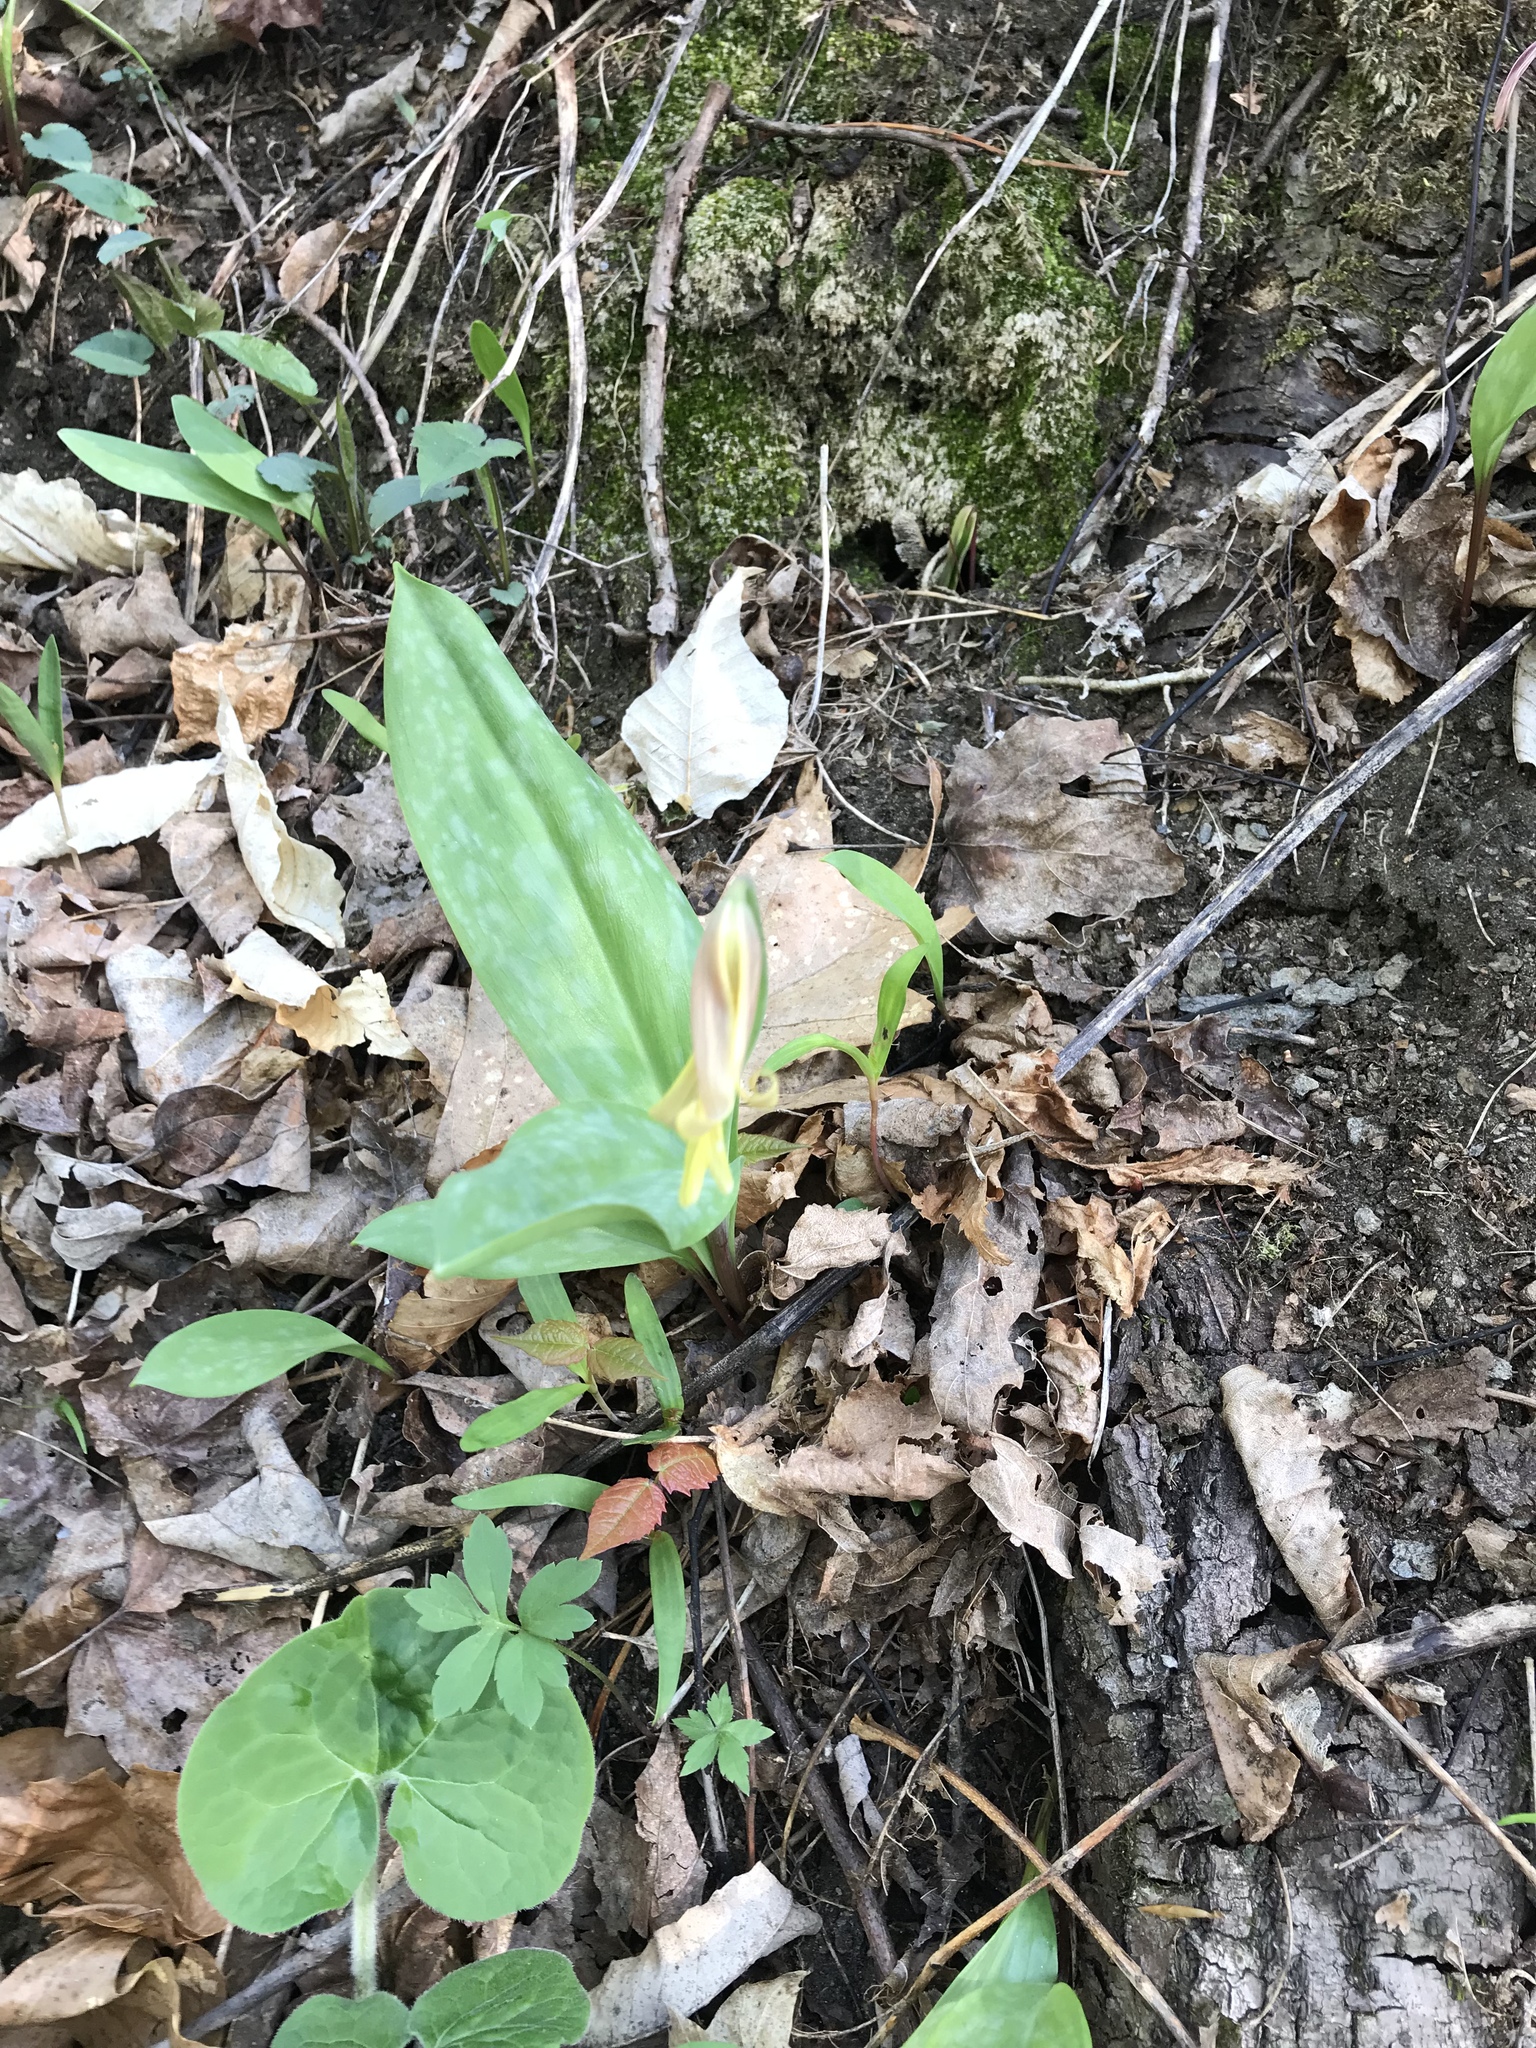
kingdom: Plantae
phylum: Tracheophyta
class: Liliopsida
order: Liliales
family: Liliaceae
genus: Erythronium
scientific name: Erythronium americanum
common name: Yellow adder's-tongue
